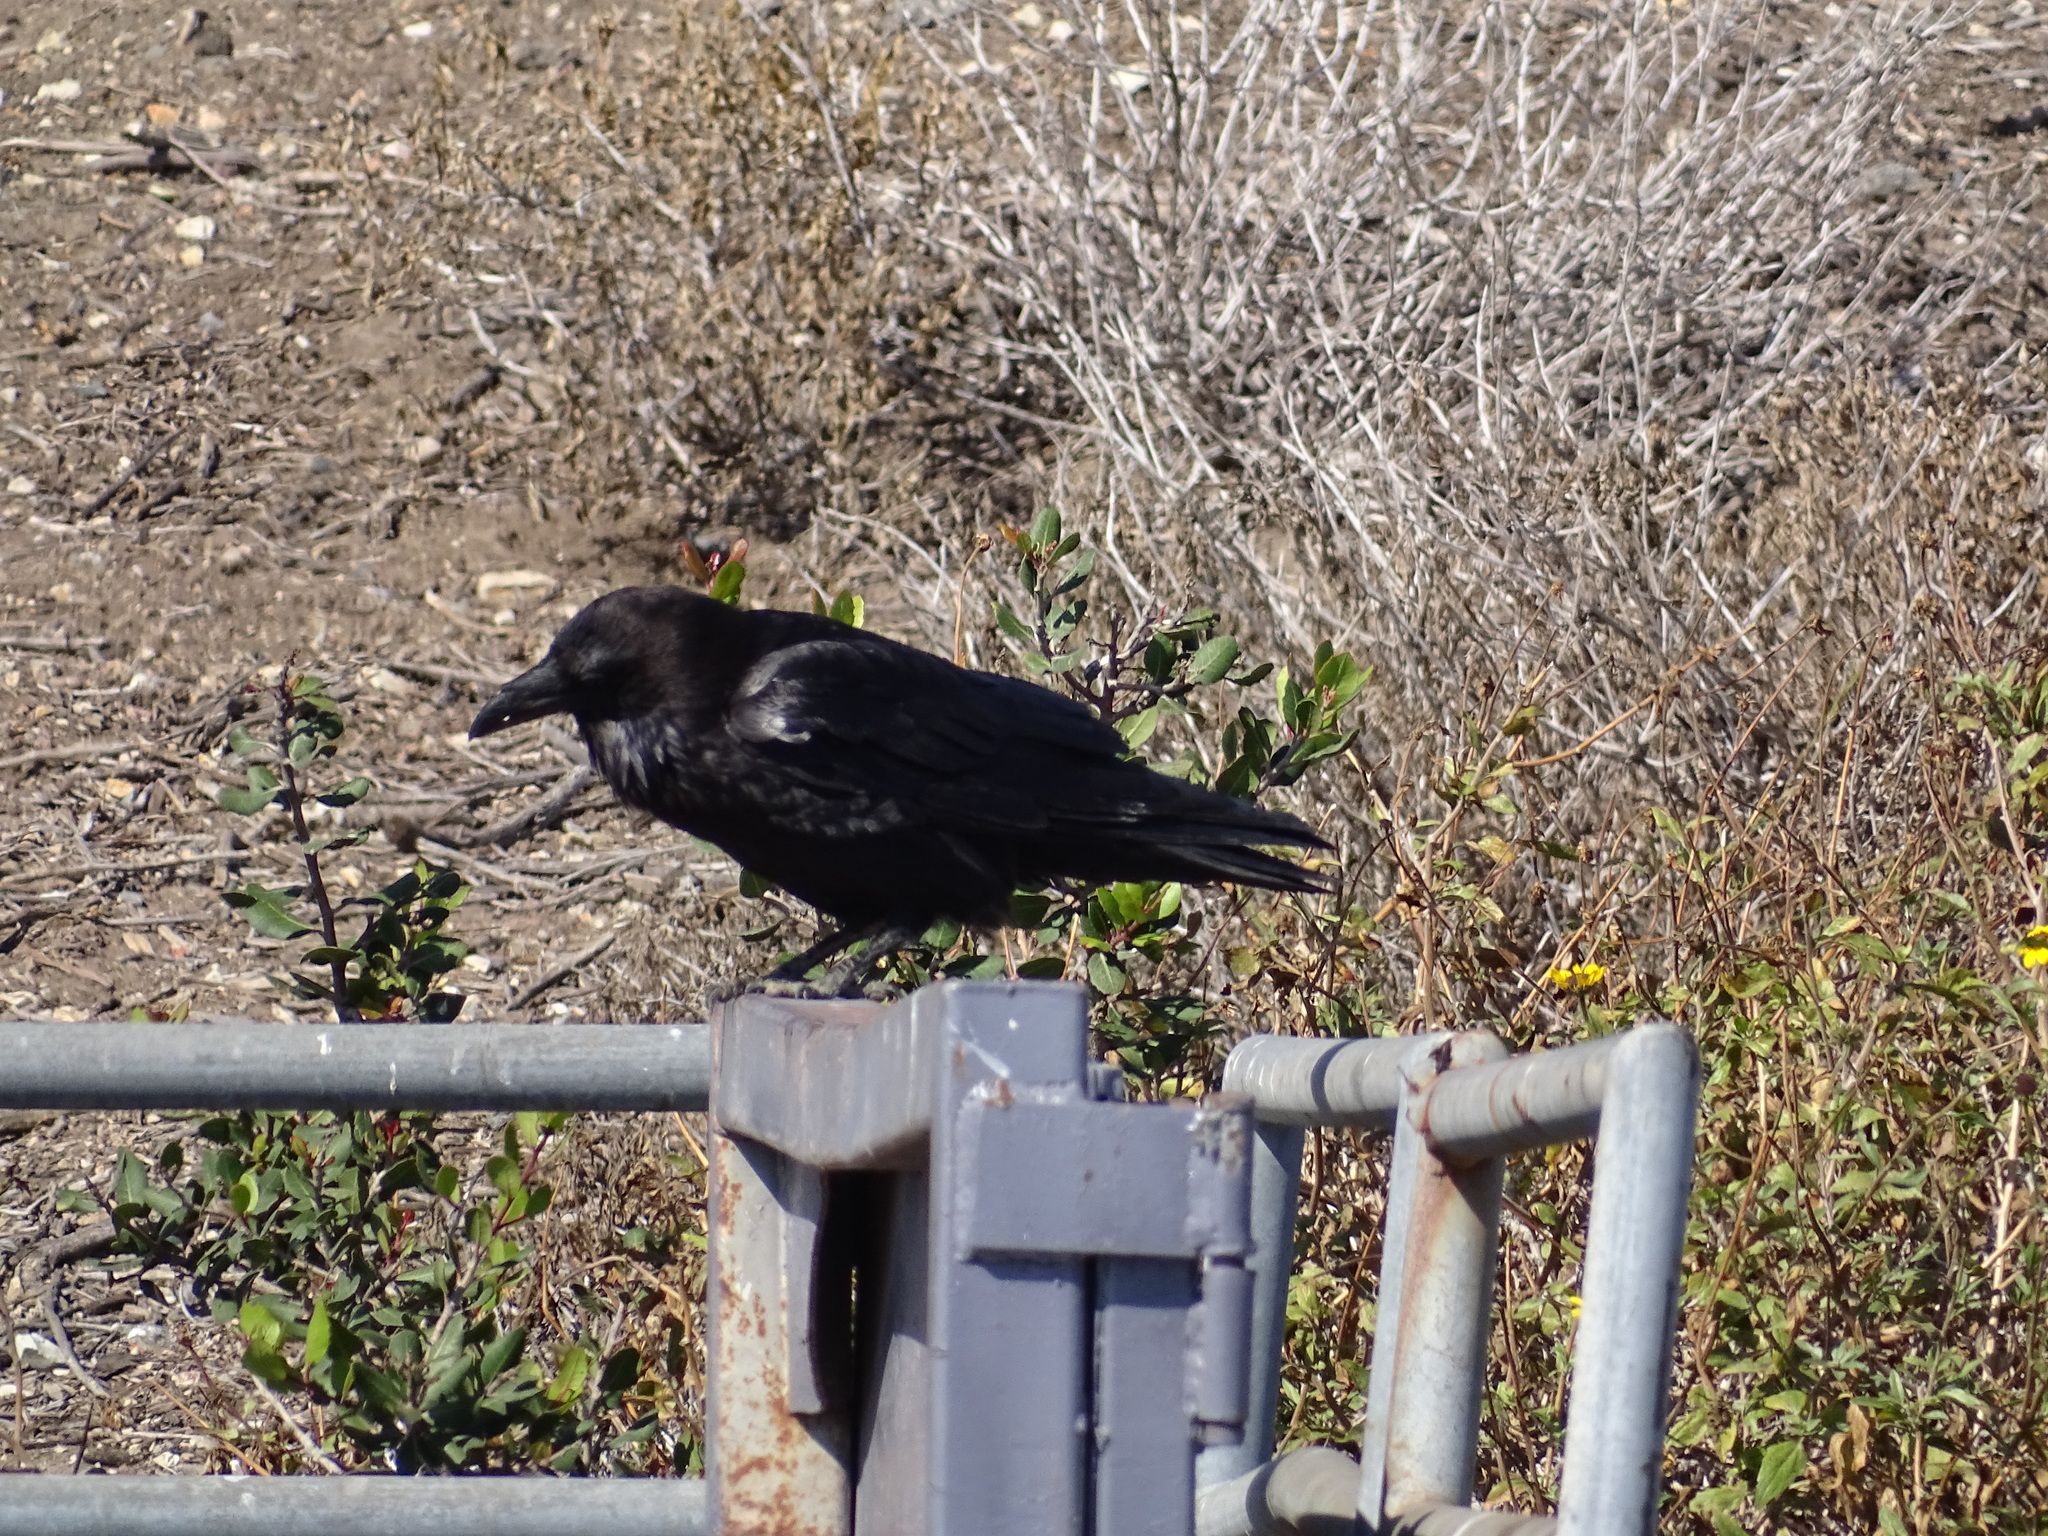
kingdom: Animalia
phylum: Chordata
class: Aves
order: Passeriformes
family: Corvidae
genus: Corvus
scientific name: Corvus corax
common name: Common raven
